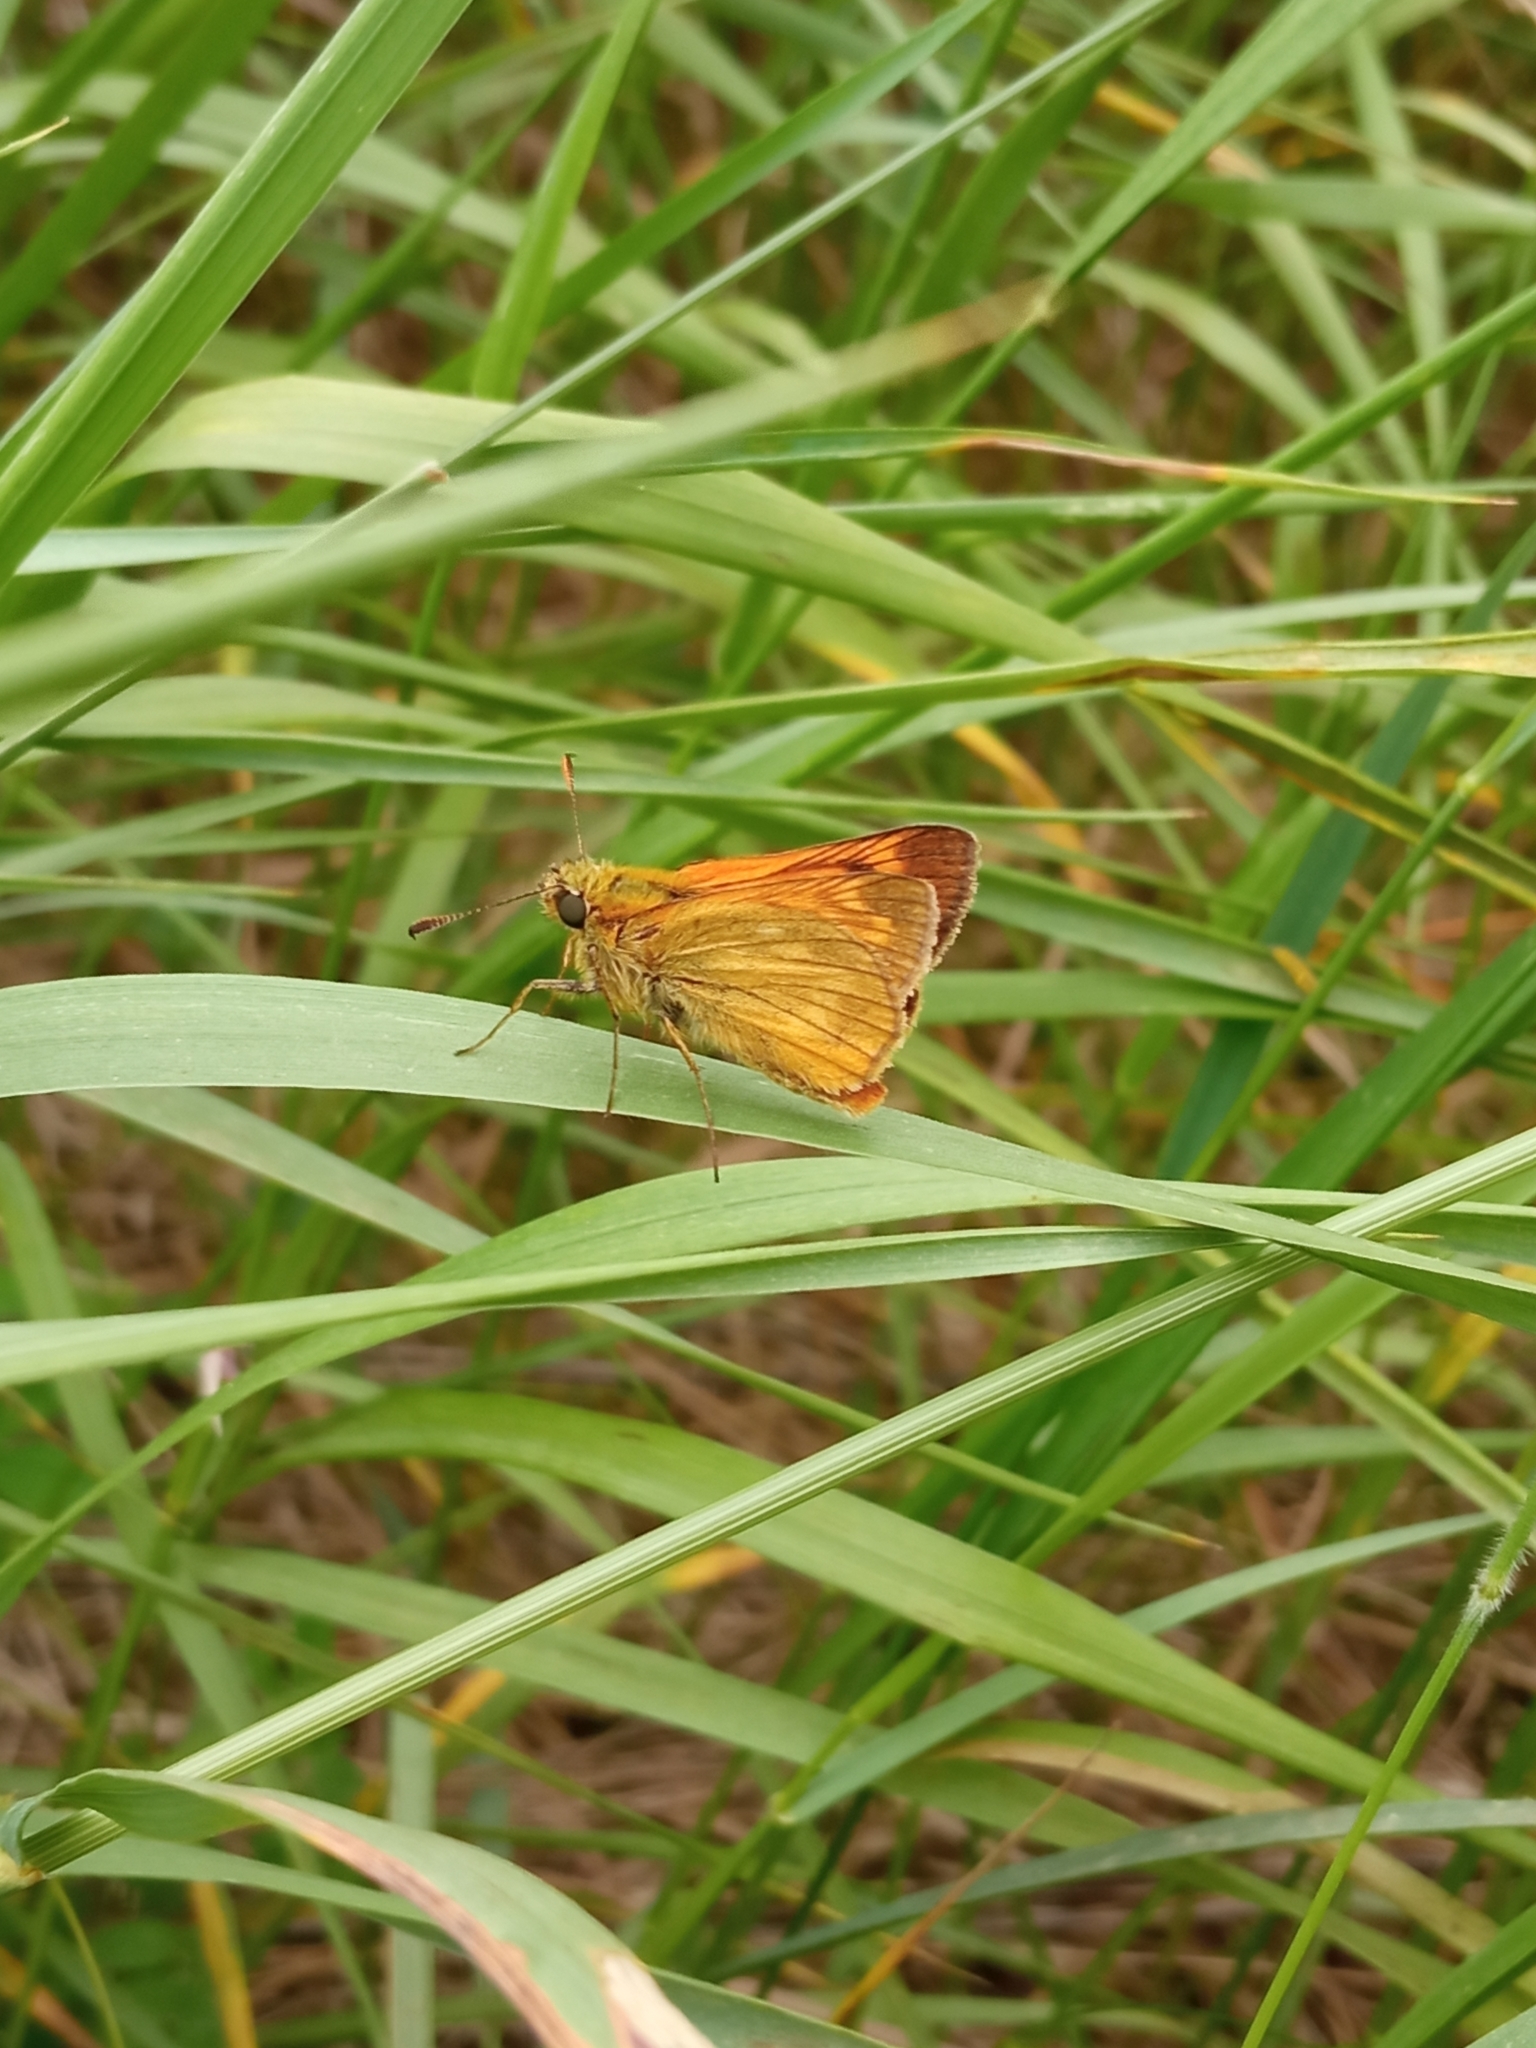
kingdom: Animalia
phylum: Arthropoda
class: Insecta
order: Lepidoptera
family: Hesperiidae
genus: Ochlodes
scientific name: Ochlodes venata
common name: Large skipper
